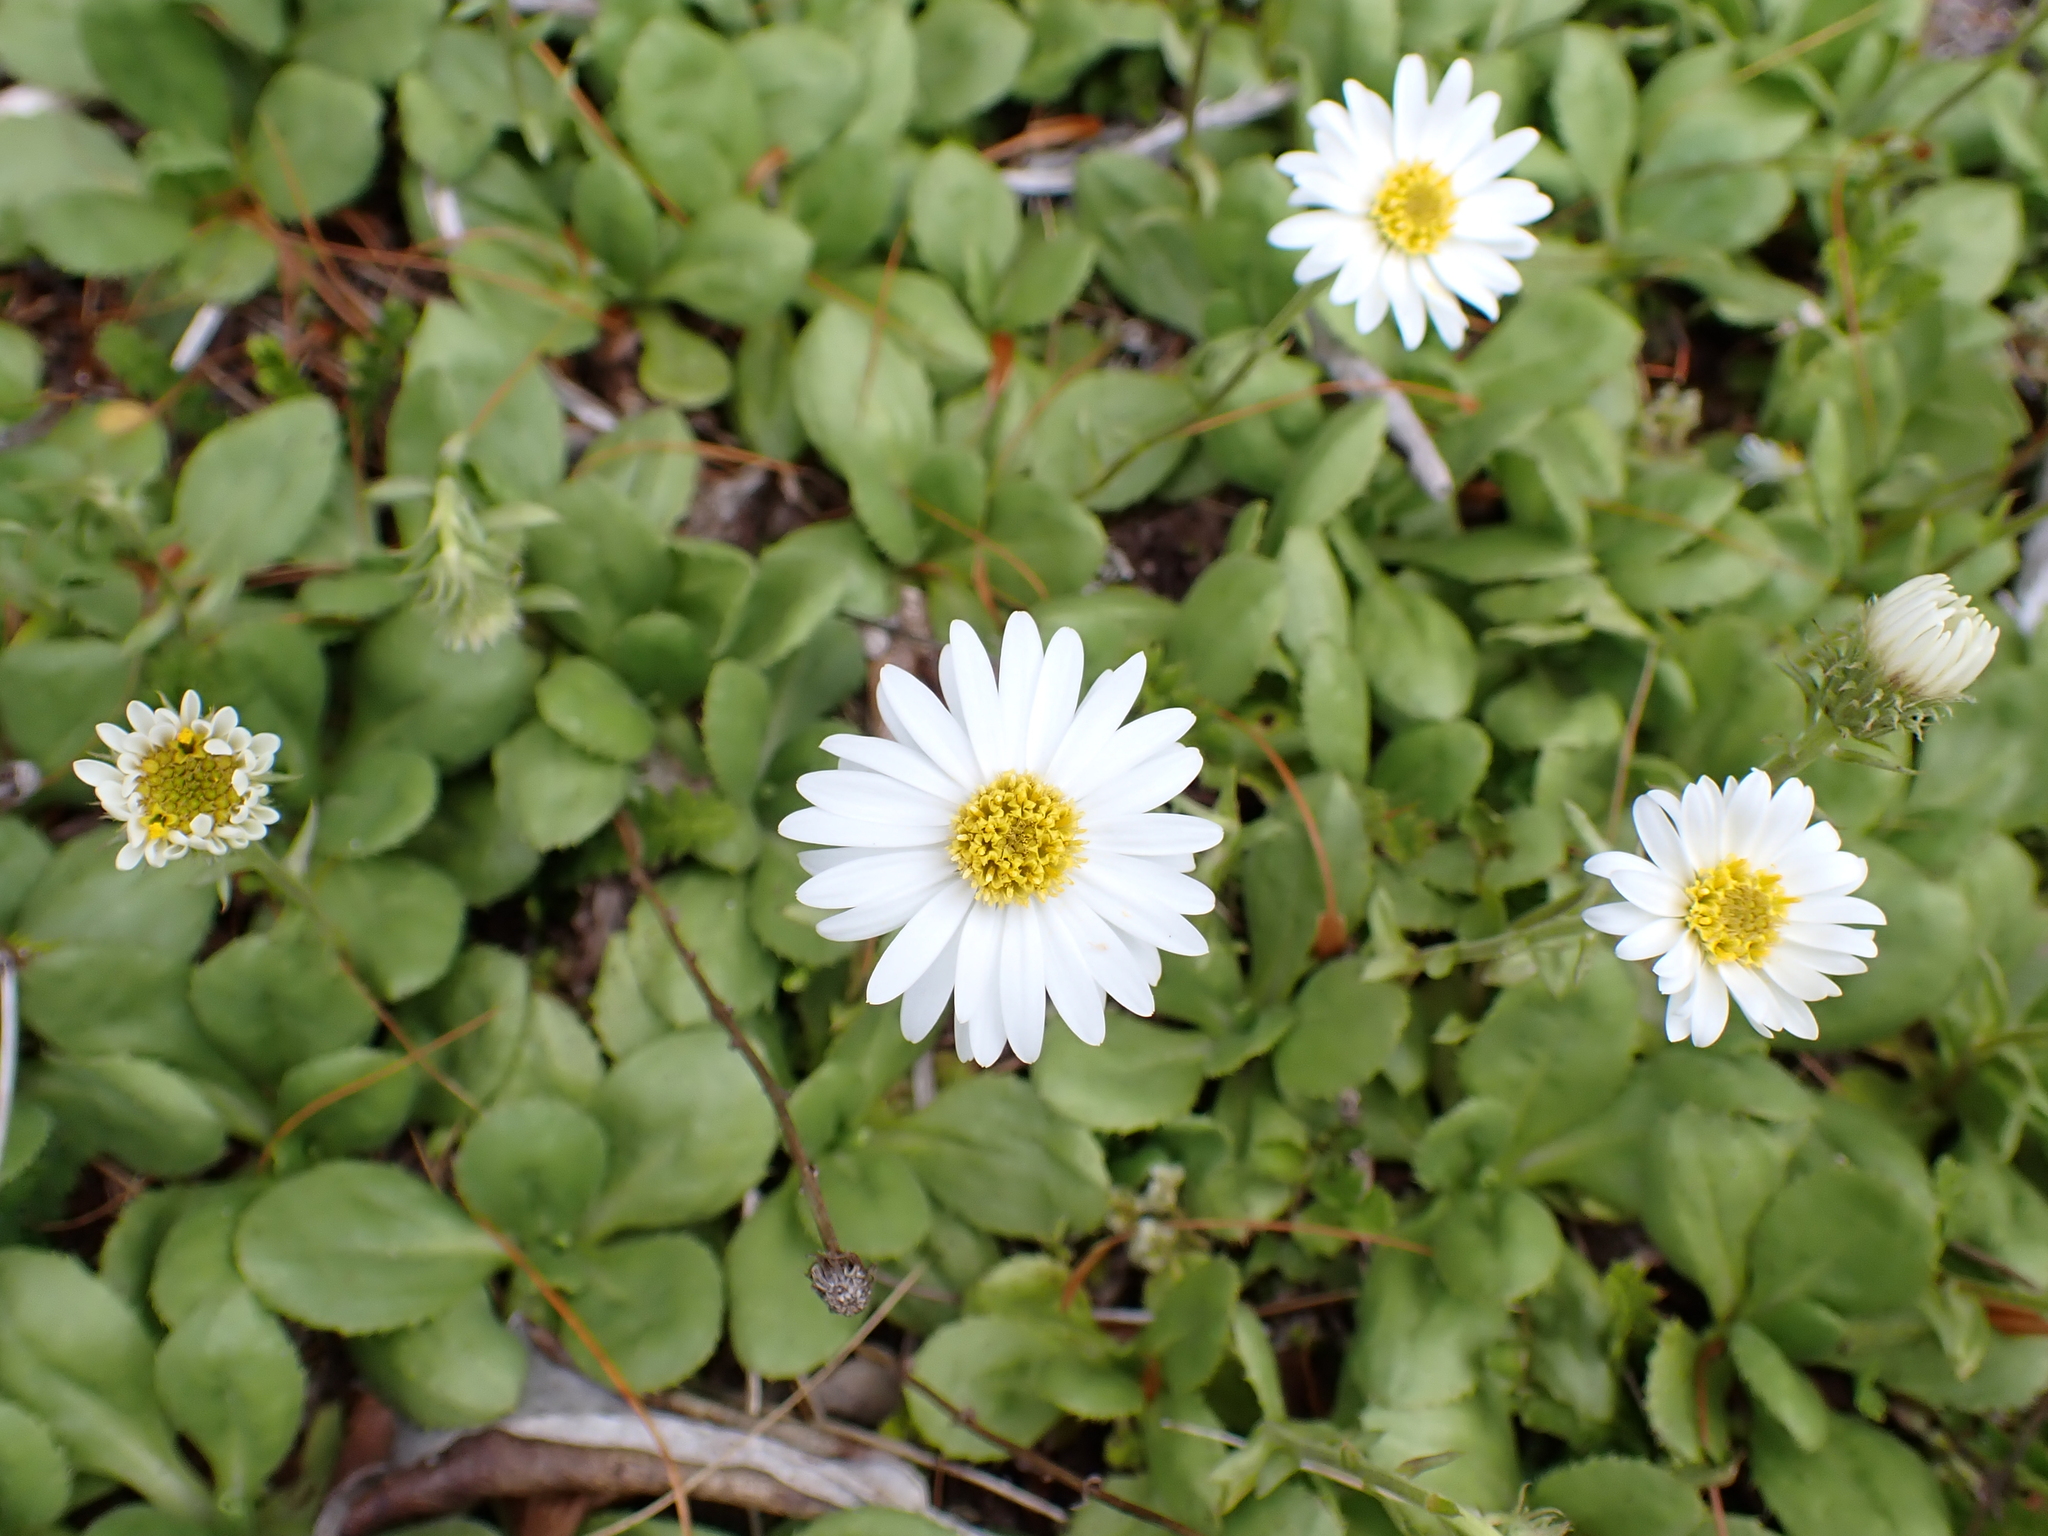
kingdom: Plantae
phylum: Tracheophyta
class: Magnoliopsida
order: Asterales
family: Asteraceae
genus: Celmisia
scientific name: Celmisia glandulosa
